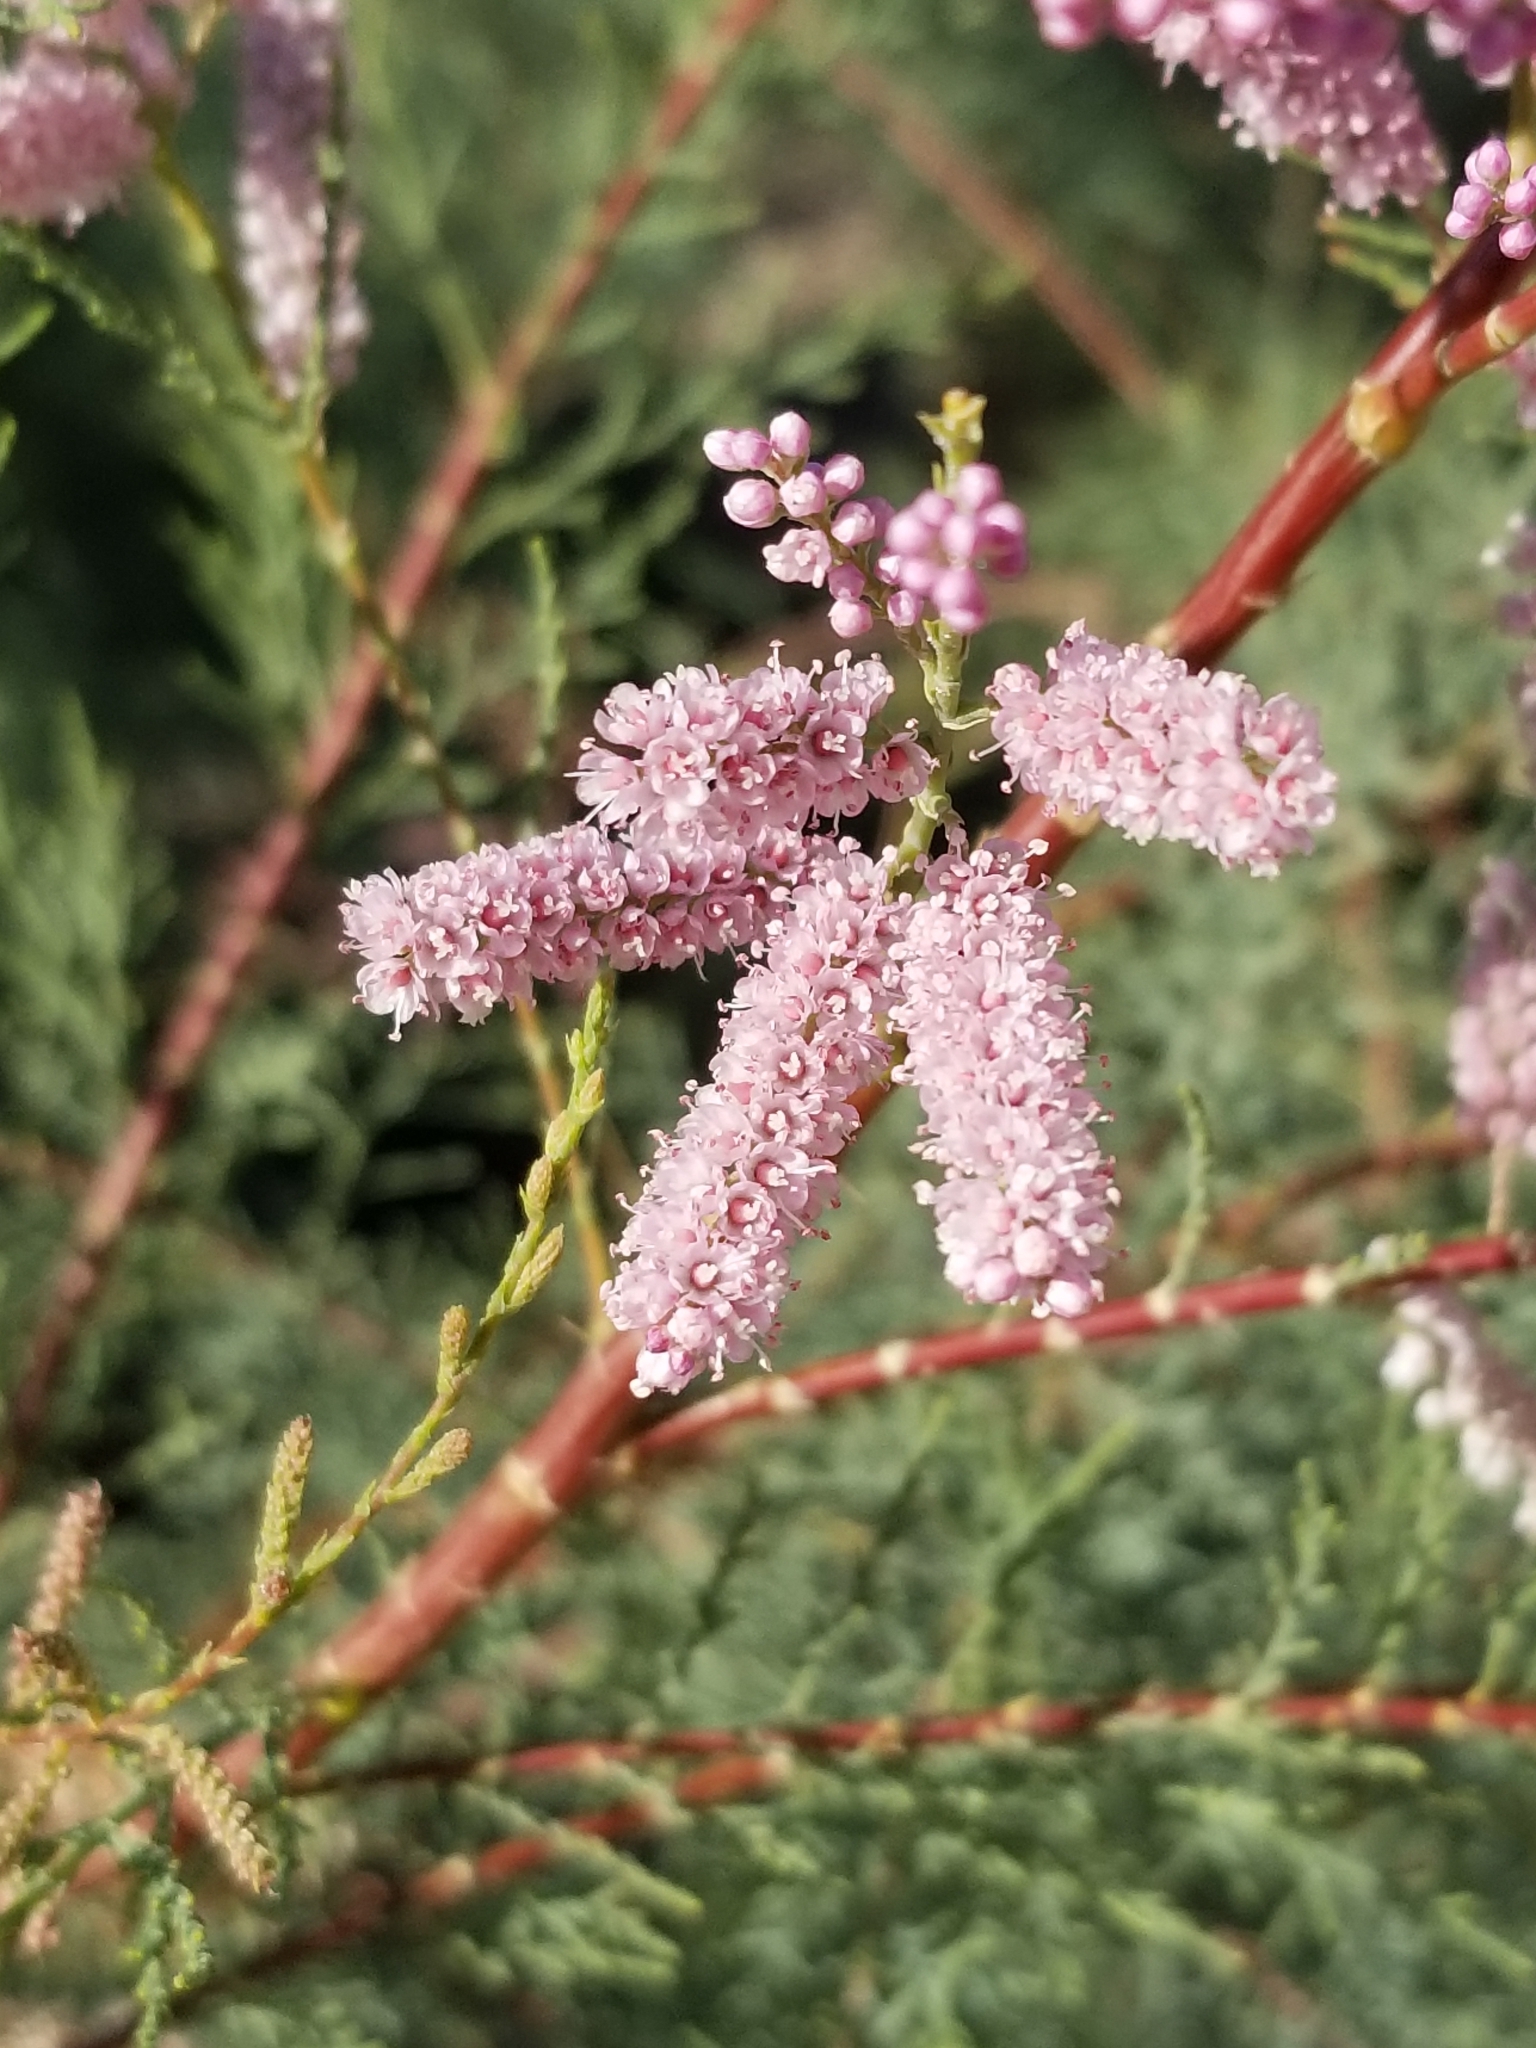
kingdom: Plantae
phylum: Tracheophyta
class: Magnoliopsida
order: Caryophyllales
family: Tamaricaceae
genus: Tamarix
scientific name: Tamarix ramosissima
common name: Pink tamarisk
